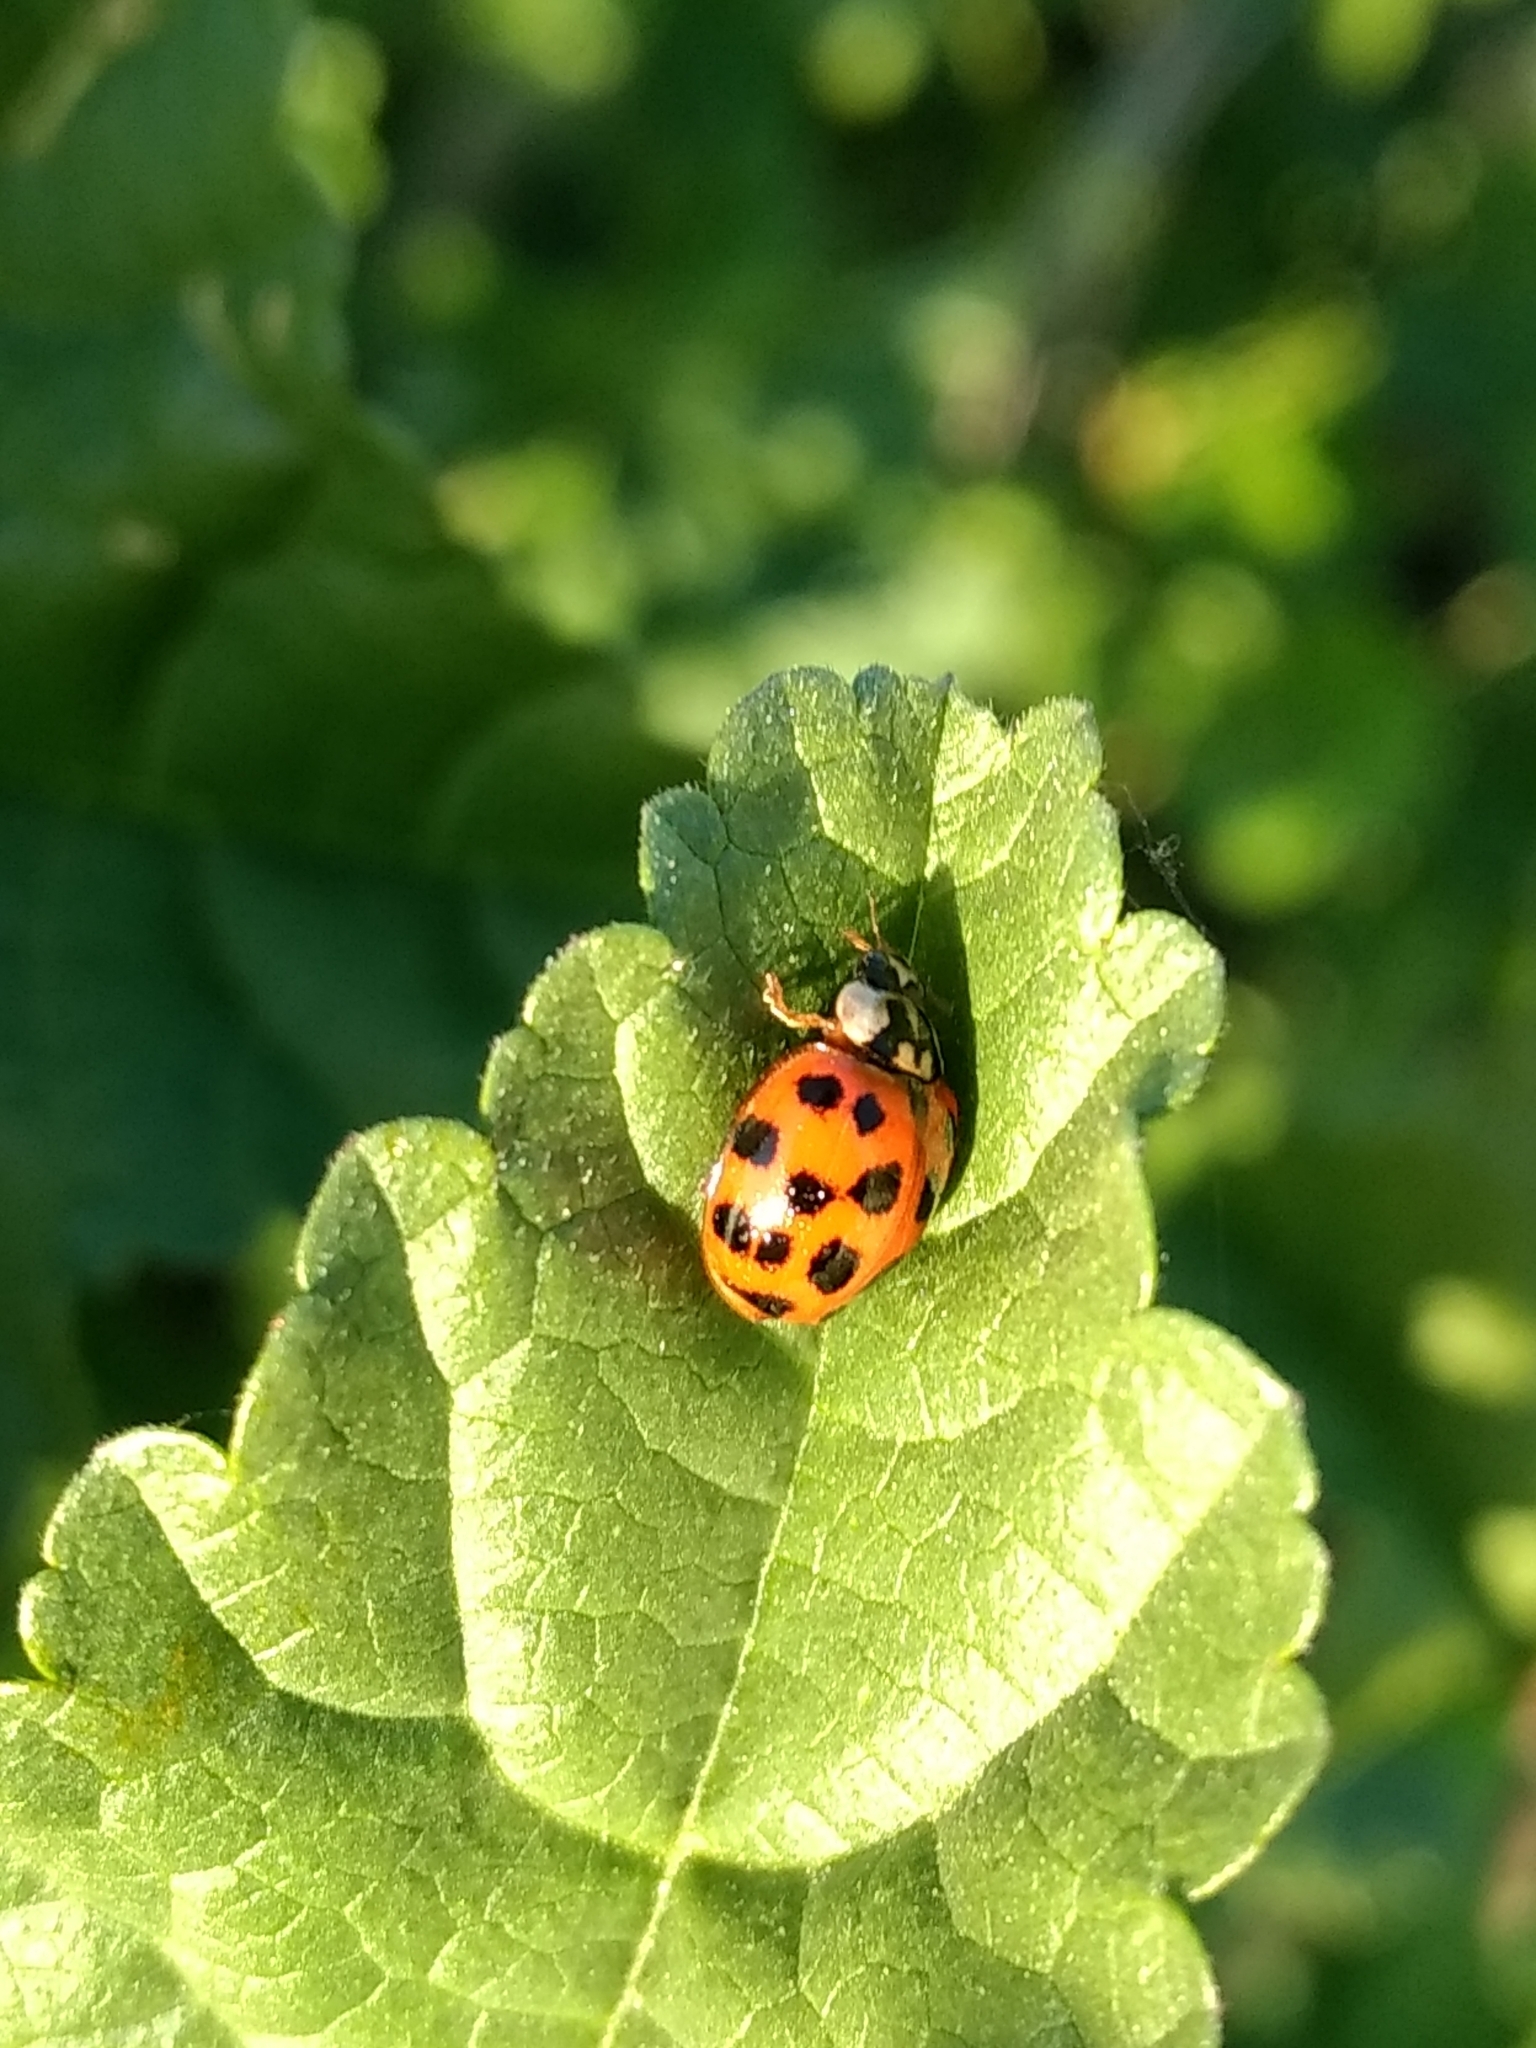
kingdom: Animalia
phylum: Arthropoda
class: Insecta
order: Coleoptera
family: Coccinellidae
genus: Harmonia
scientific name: Harmonia axyridis
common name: Harlequin ladybird
